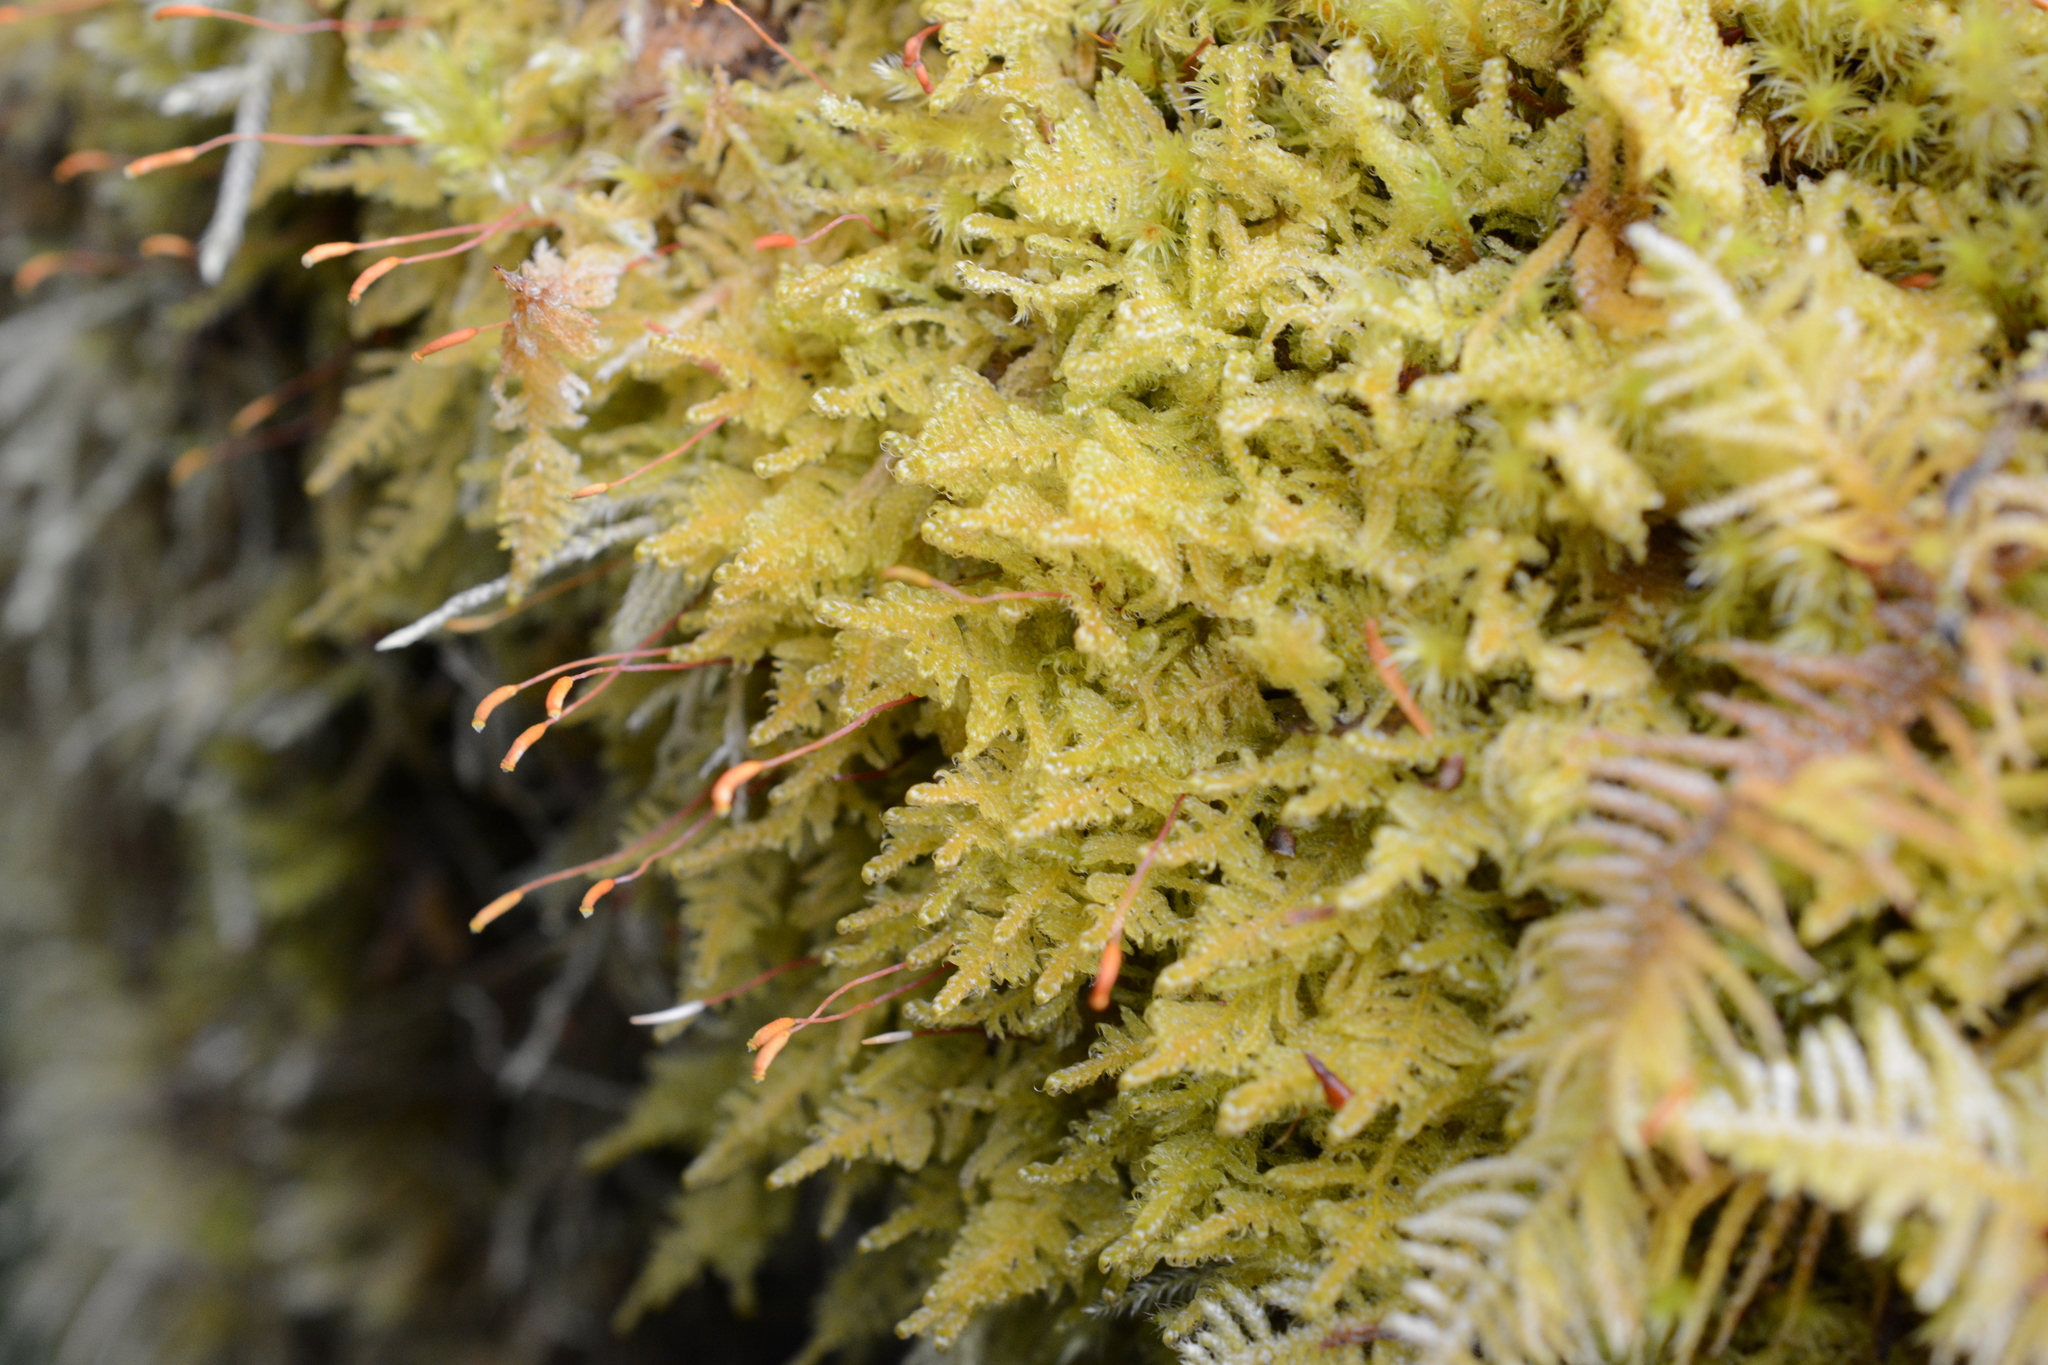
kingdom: Plantae
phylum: Bryophyta
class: Bryopsida
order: Hypnales
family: Stereodontaceae
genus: Stereodon
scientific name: Stereodon subimponens
